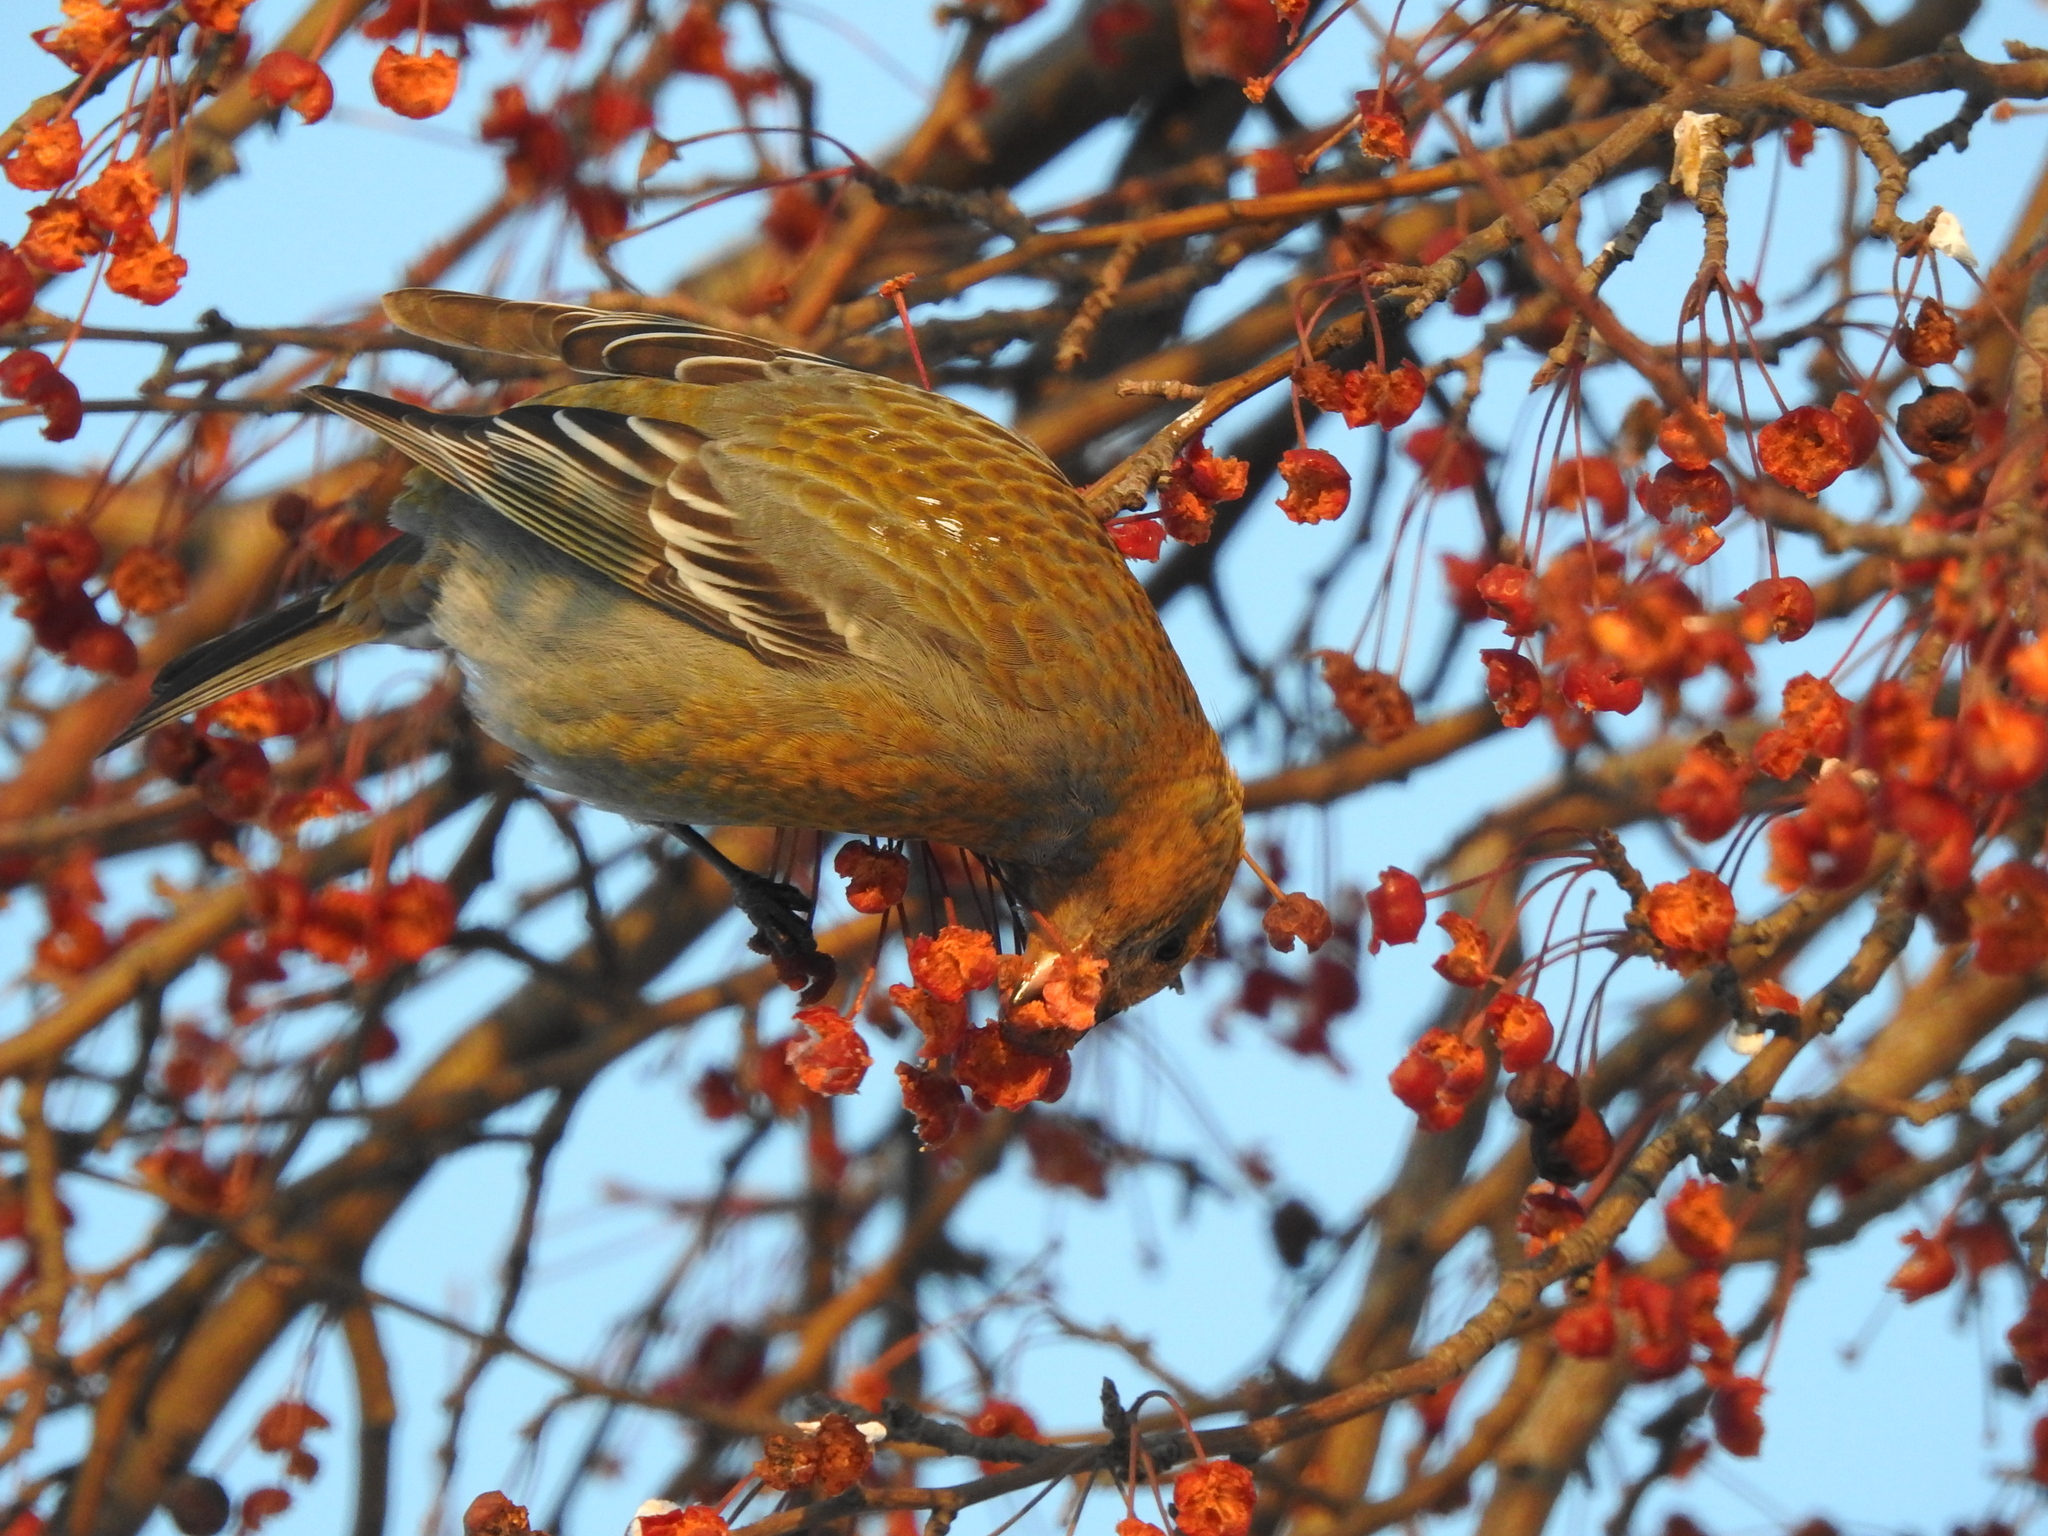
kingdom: Animalia
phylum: Chordata
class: Aves
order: Passeriformes
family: Fringillidae
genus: Pinicola
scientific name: Pinicola enucleator
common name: Pine grosbeak
